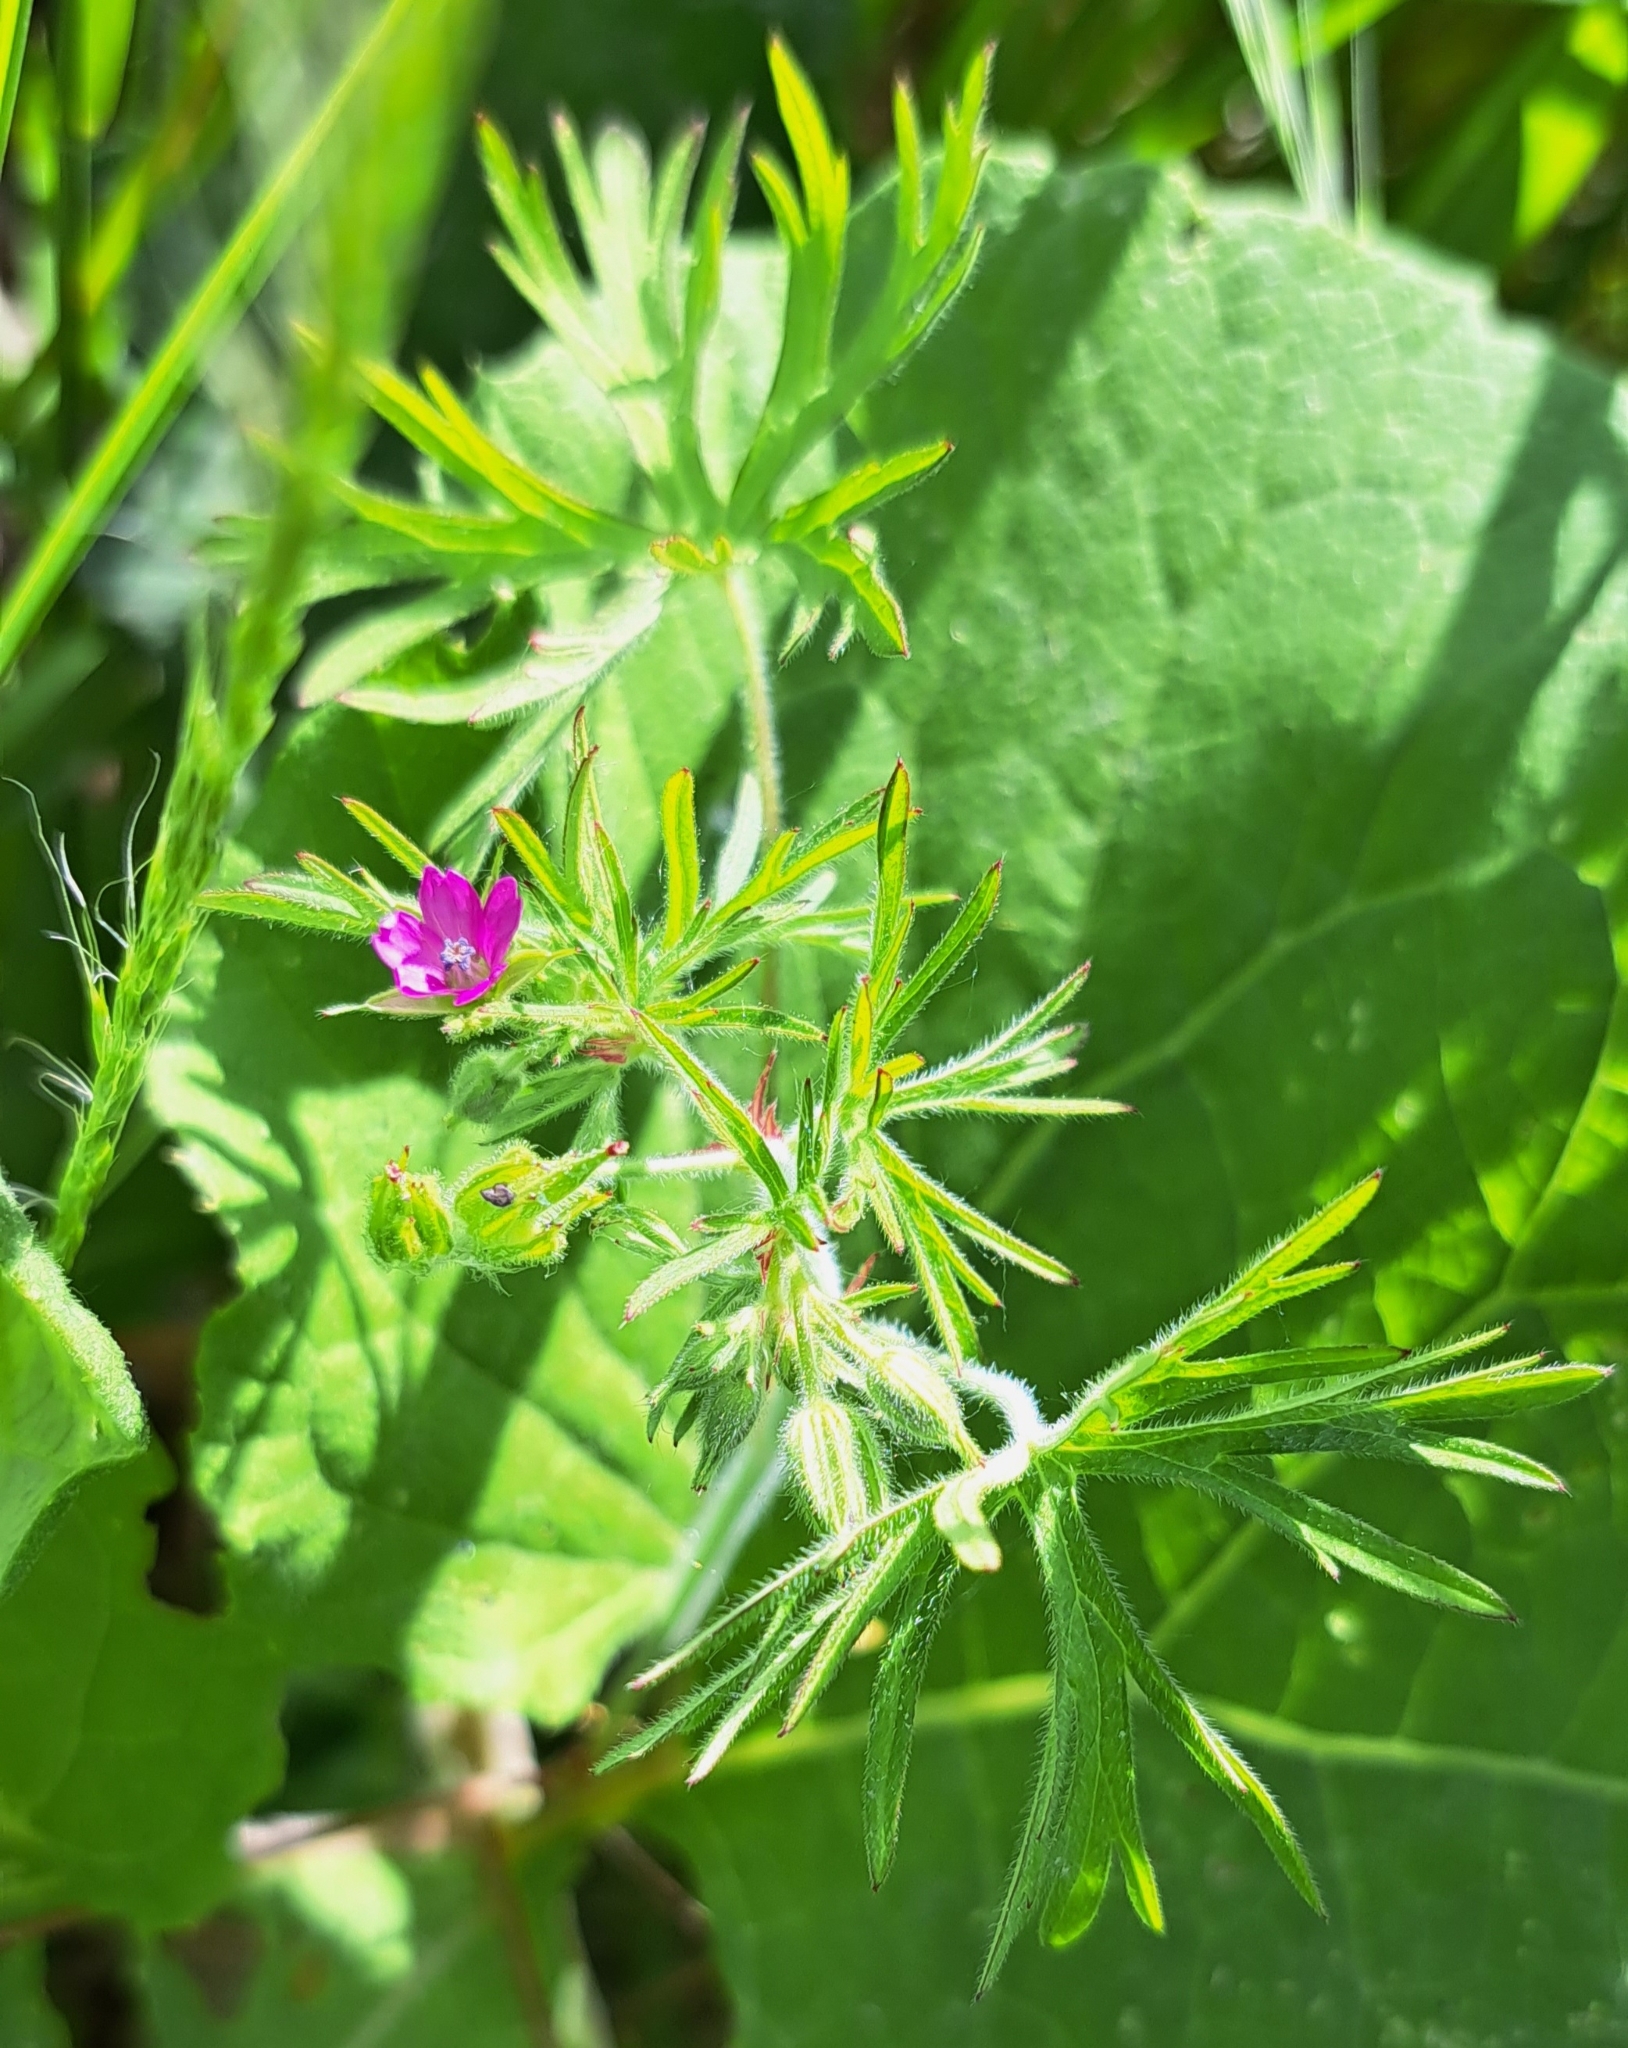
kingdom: Plantae
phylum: Tracheophyta
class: Magnoliopsida
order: Geraniales
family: Geraniaceae
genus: Geranium
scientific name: Geranium dissectum
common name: Cut-leaved crane's-bill
